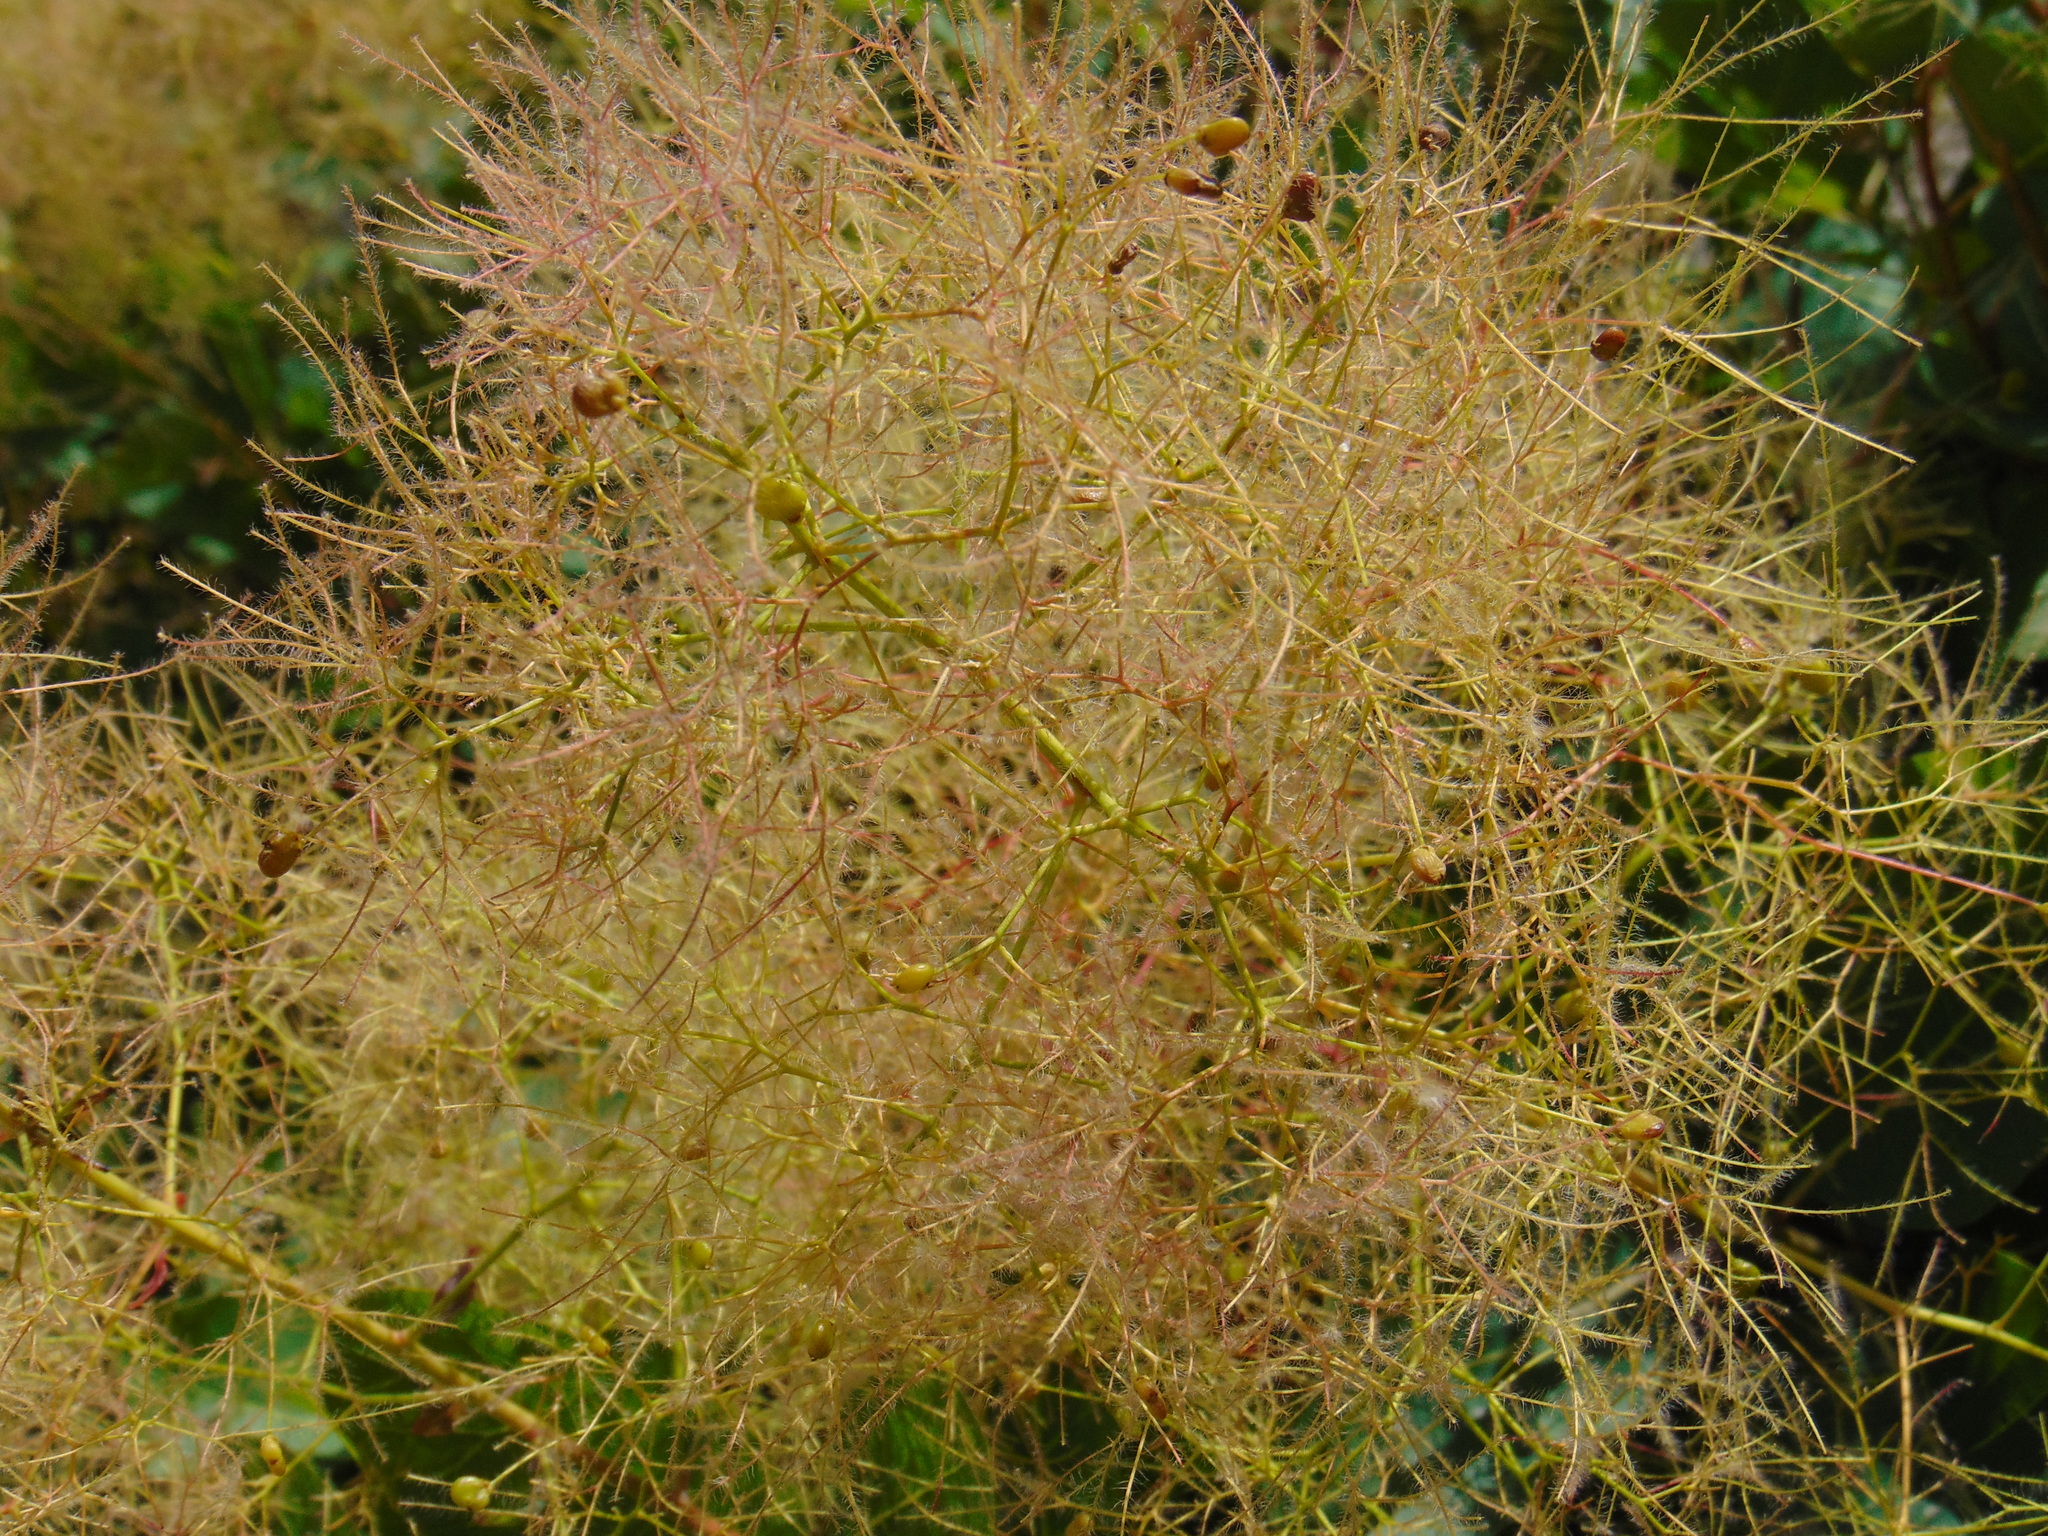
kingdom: Plantae
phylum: Tracheophyta
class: Magnoliopsida
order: Sapindales
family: Anacardiaceae
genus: Cotinus
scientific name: Cotinus coggygria
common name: Smoke-tree
